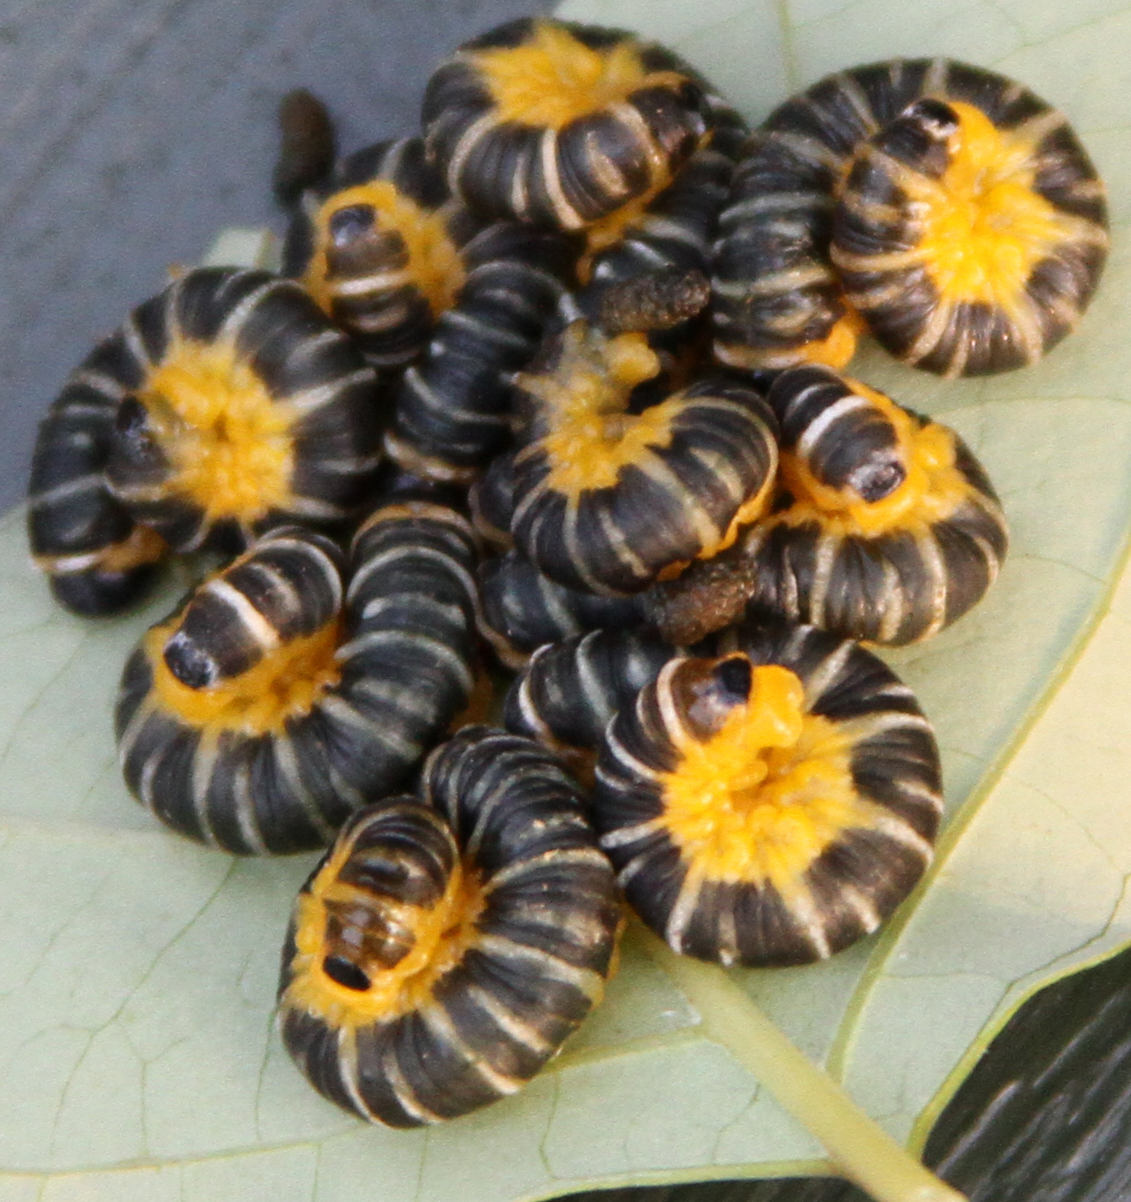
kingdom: Animalia
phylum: Arthropoda
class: Insecta
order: Hymenoptera
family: Tenthredinidae
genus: Macremphytus
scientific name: Macremphytus
